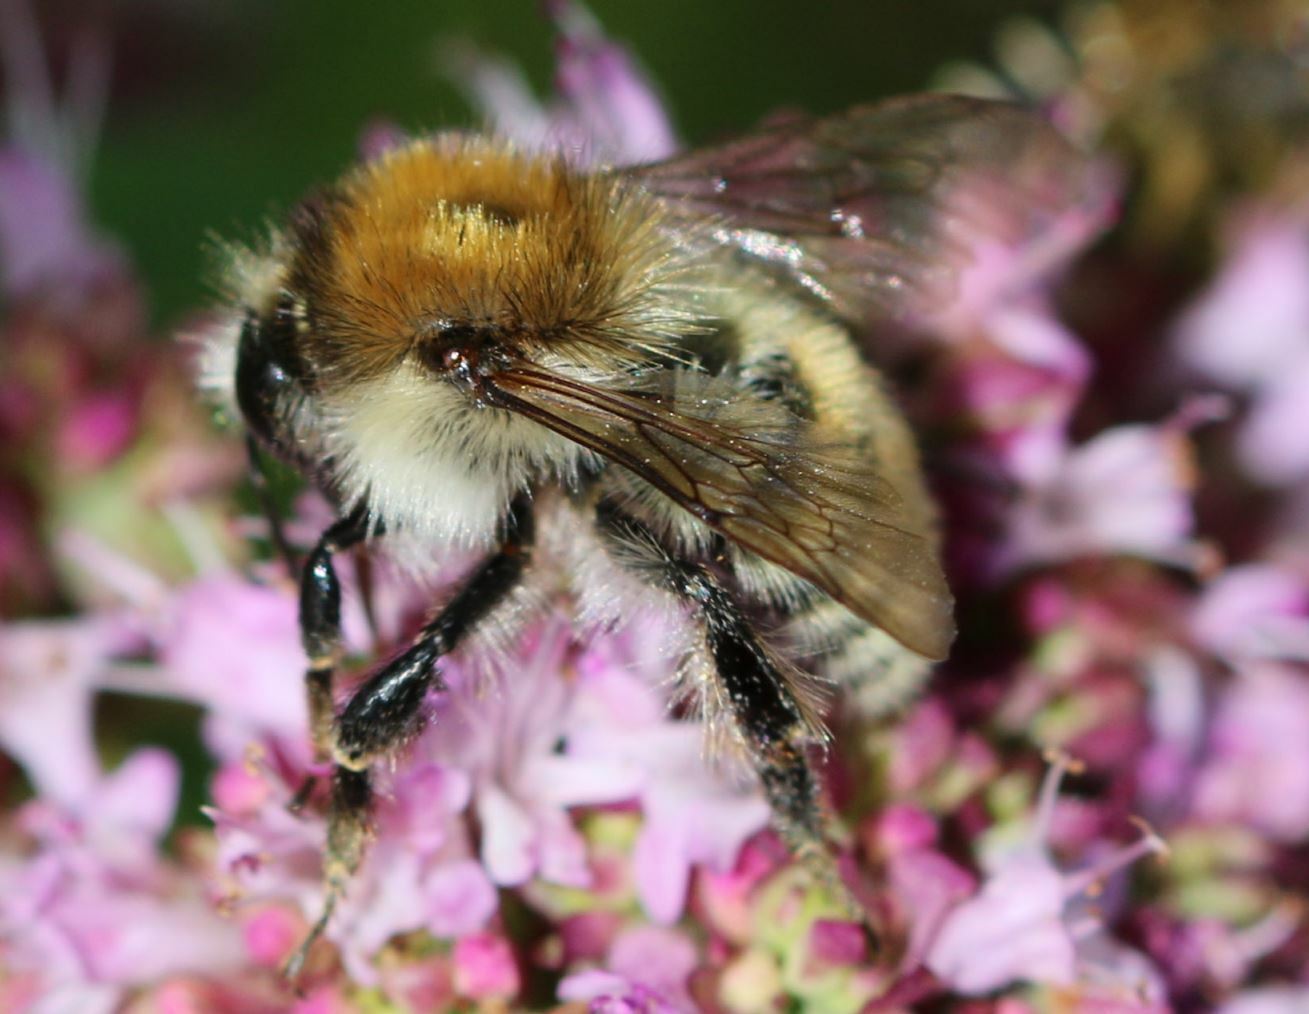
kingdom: Animalia
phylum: Arthropoda
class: Insecta
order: Hymenoptera
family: Apidae
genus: Bombus
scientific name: Bombus humilis
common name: Brown-banded carder-bee
